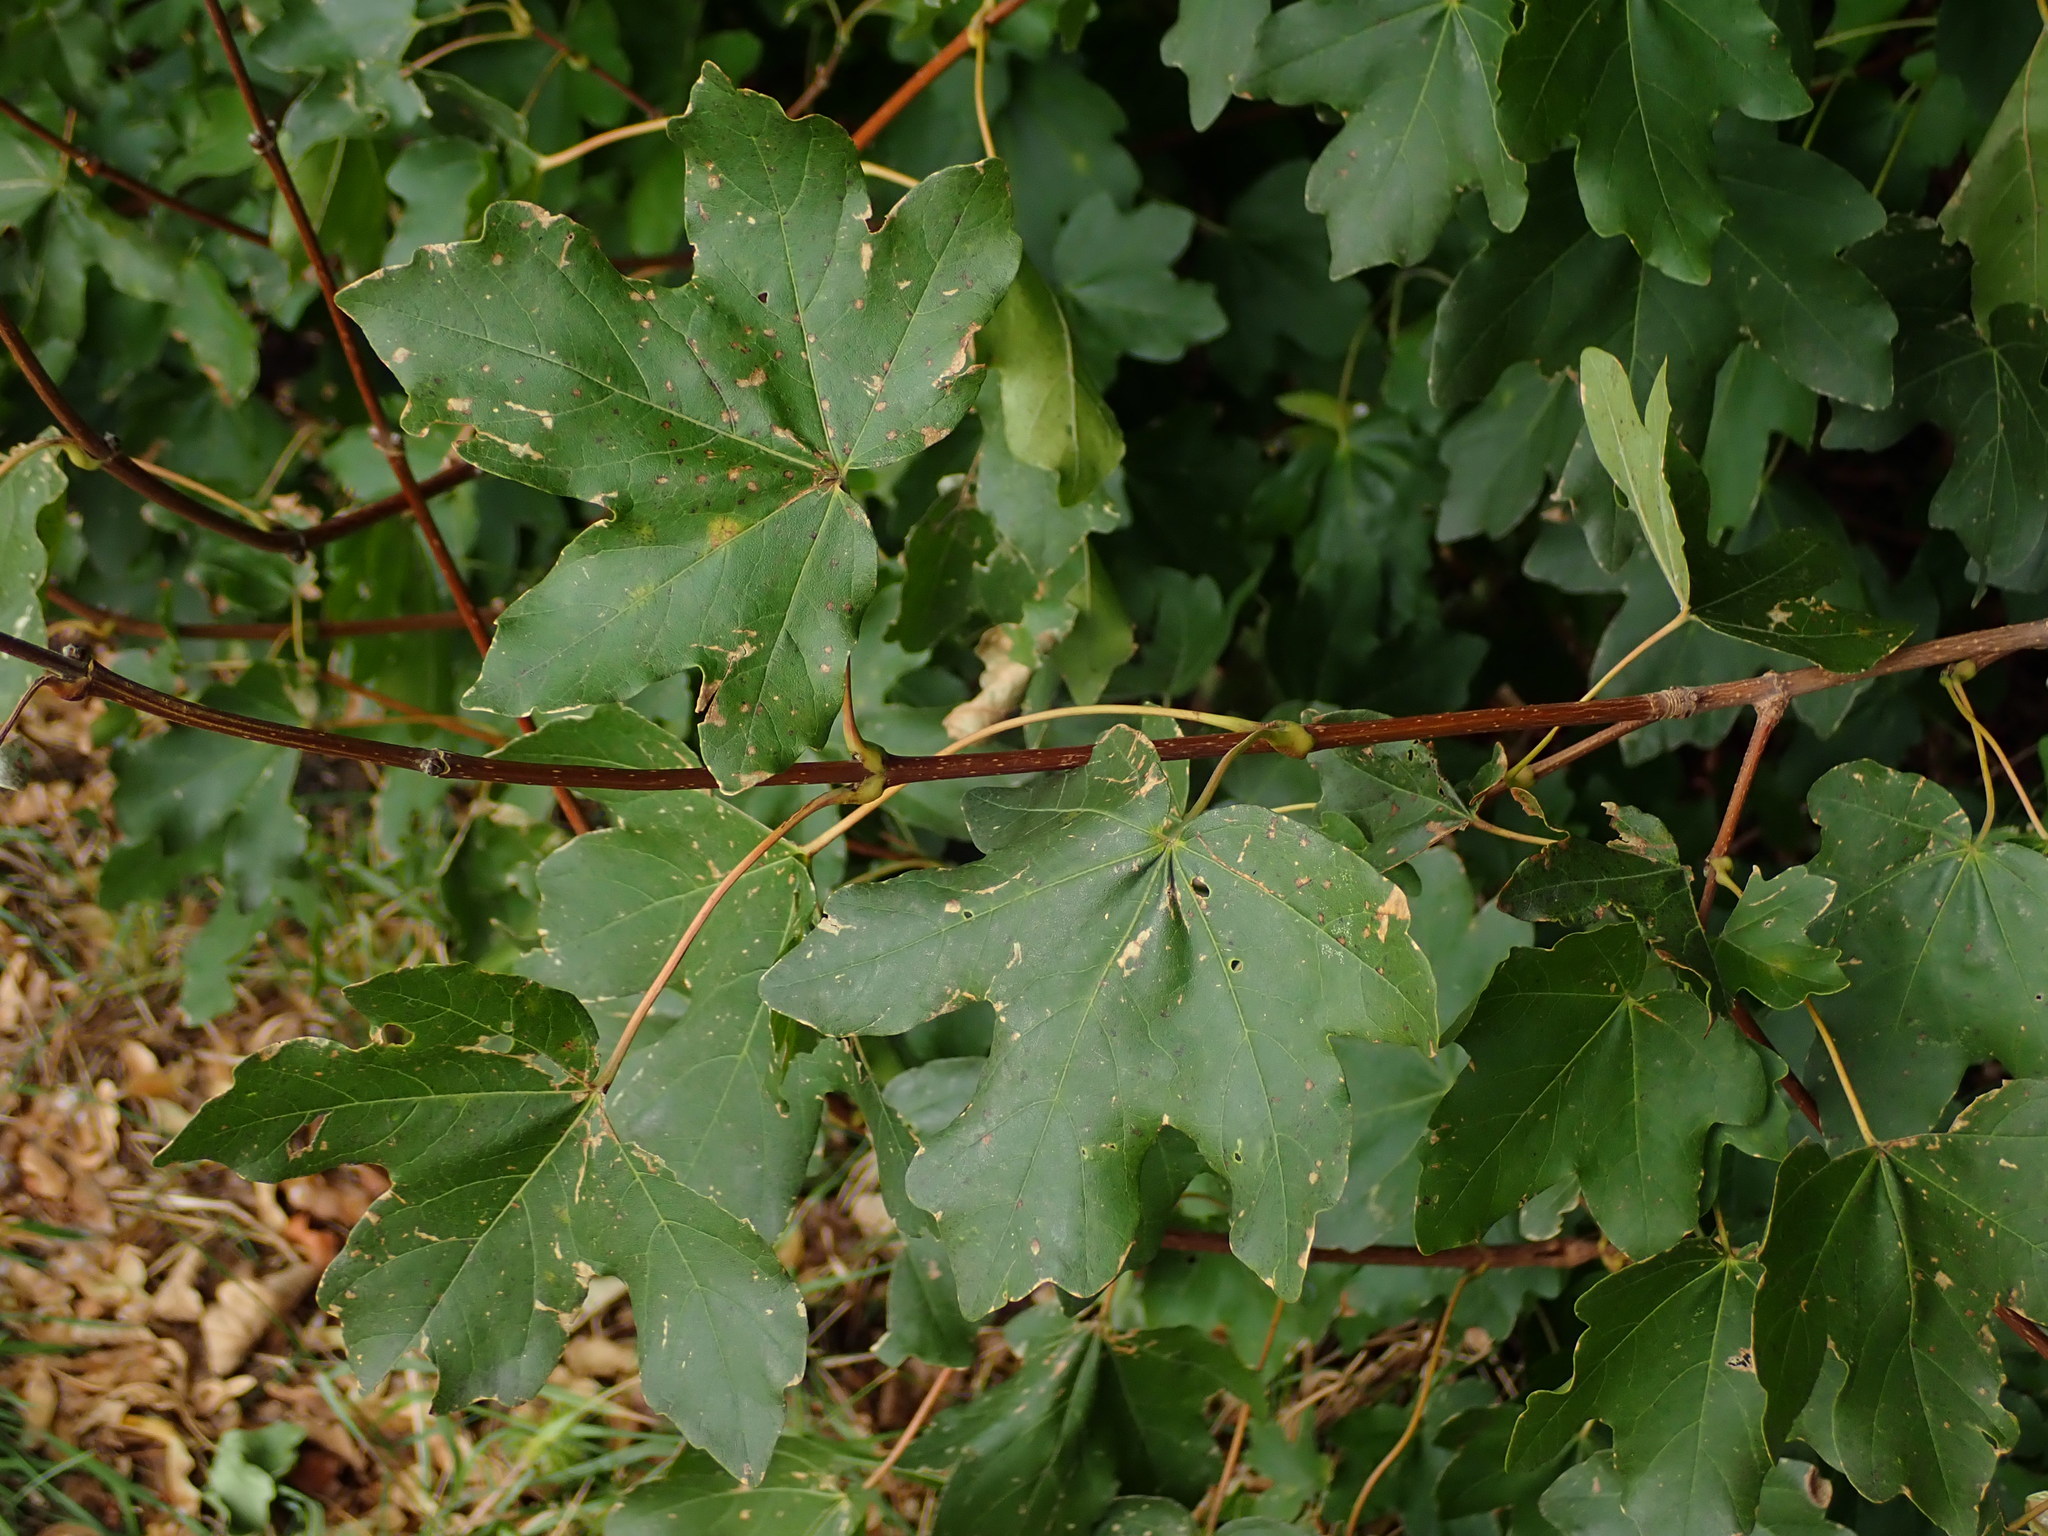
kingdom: Plantae
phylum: Tracheophyta
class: Magnoliopsida
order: Sapindales
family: Sapindaceae
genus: Acer
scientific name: Acer campestre
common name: Field maple
